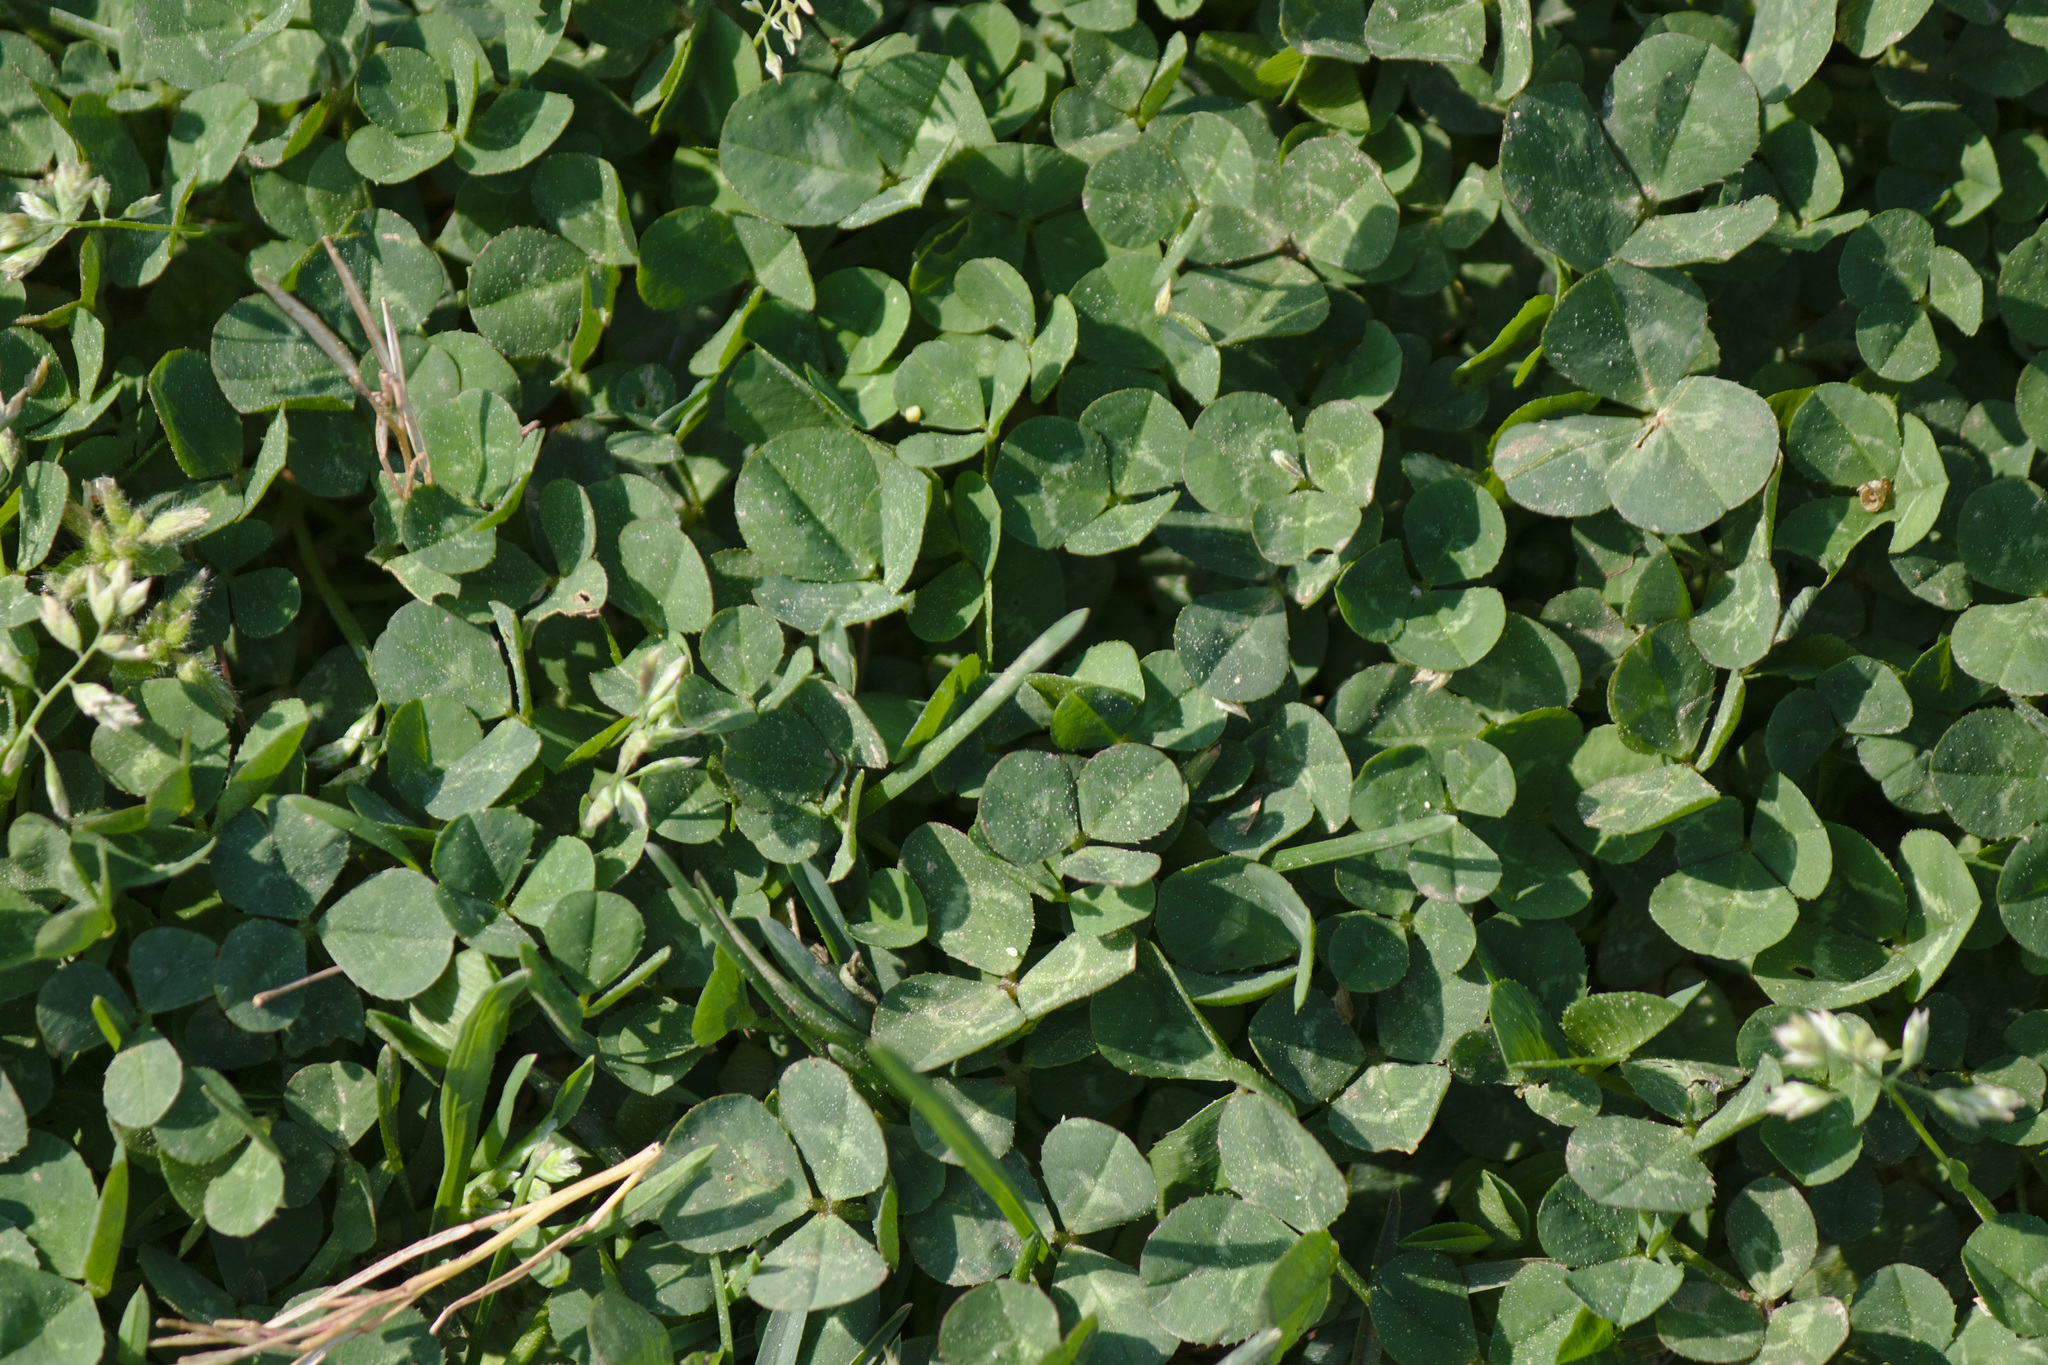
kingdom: Plantae
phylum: Tracheophyta
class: Magnoliopsida
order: Fabales
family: Fabaceae
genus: Trifolium
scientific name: Trifolium repens
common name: White clover
